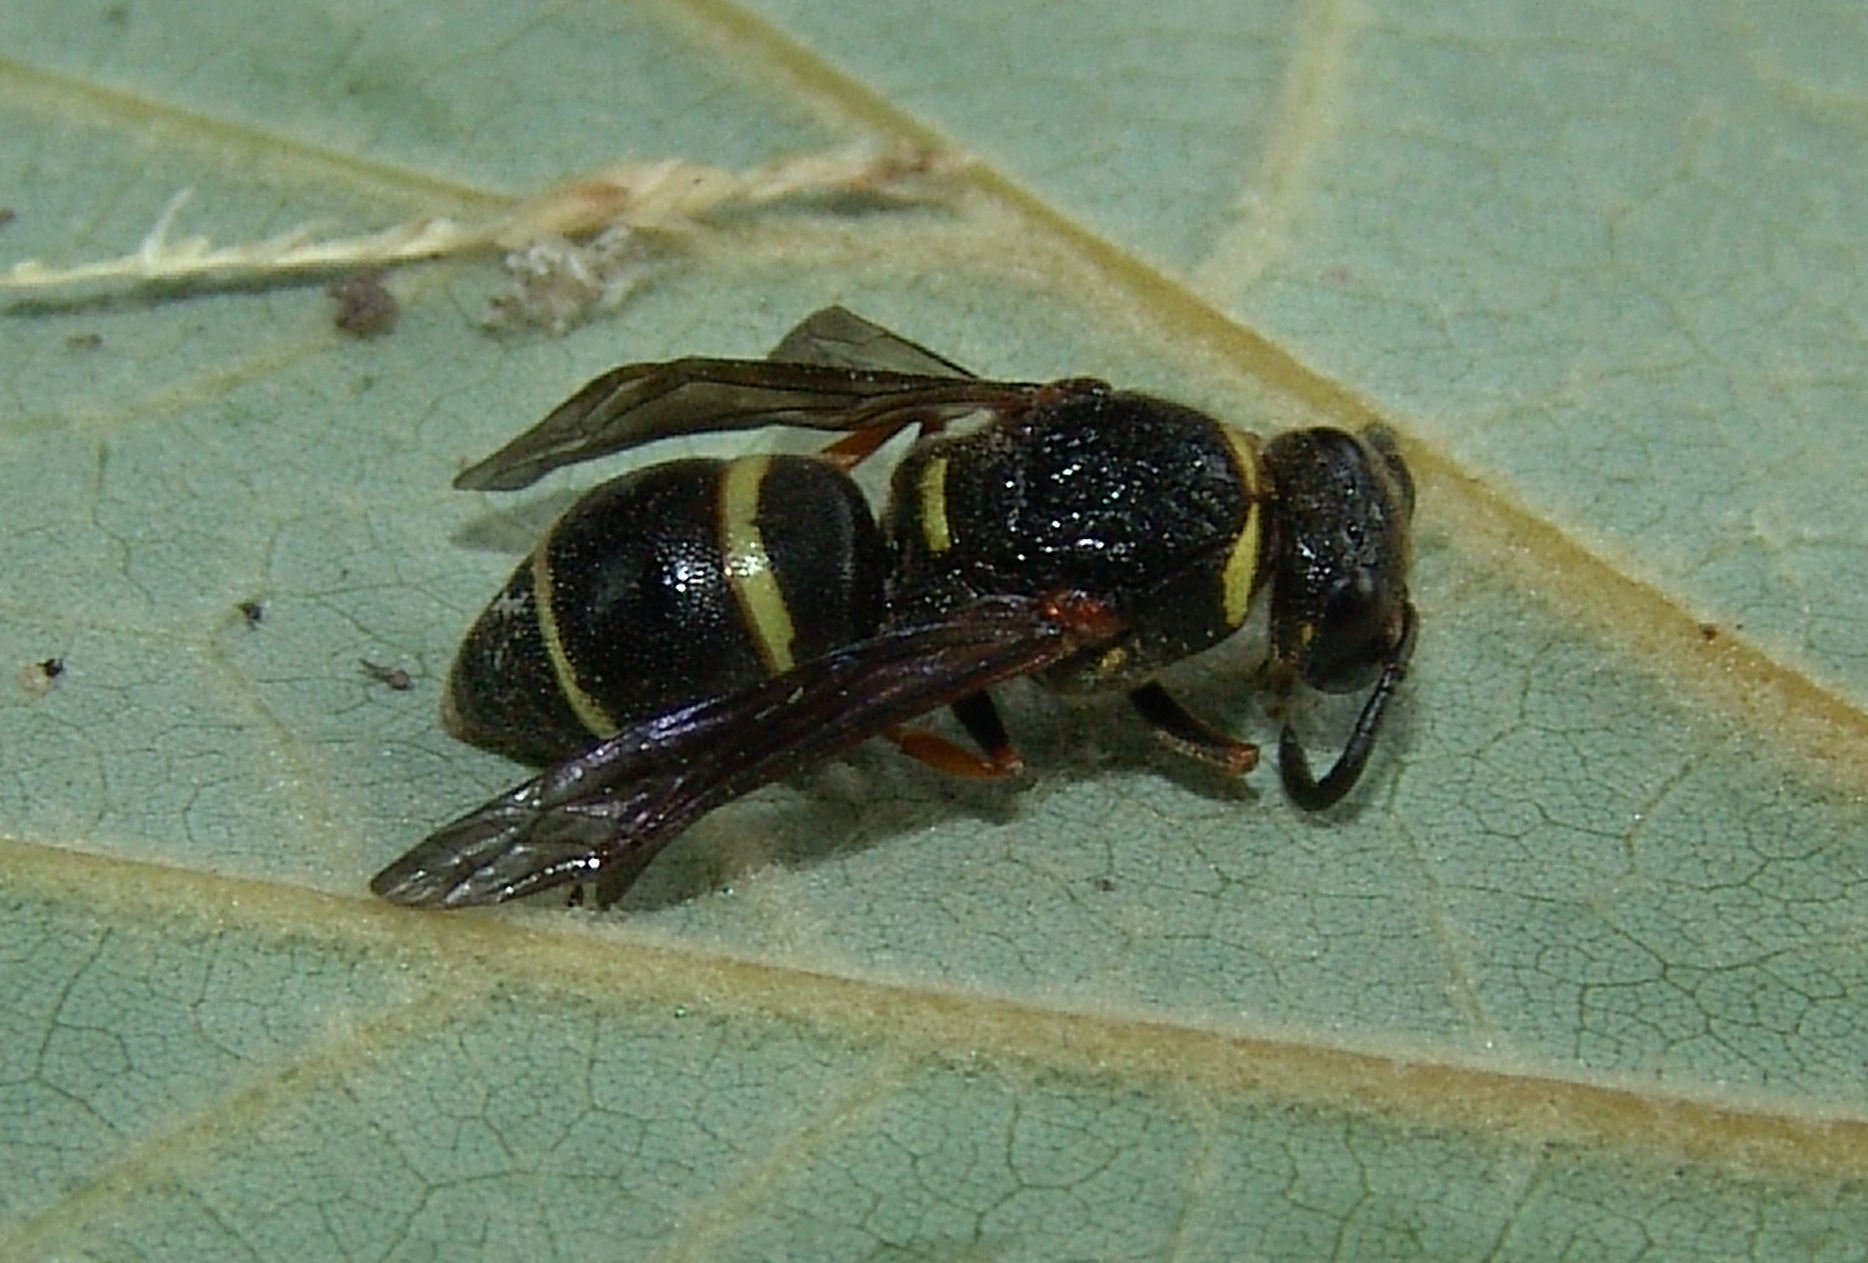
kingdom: Animalia
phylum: Arthropoda
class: Insecta
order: Hymenoptera
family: Eumenidae
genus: Euodynerus
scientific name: Euodynerus
